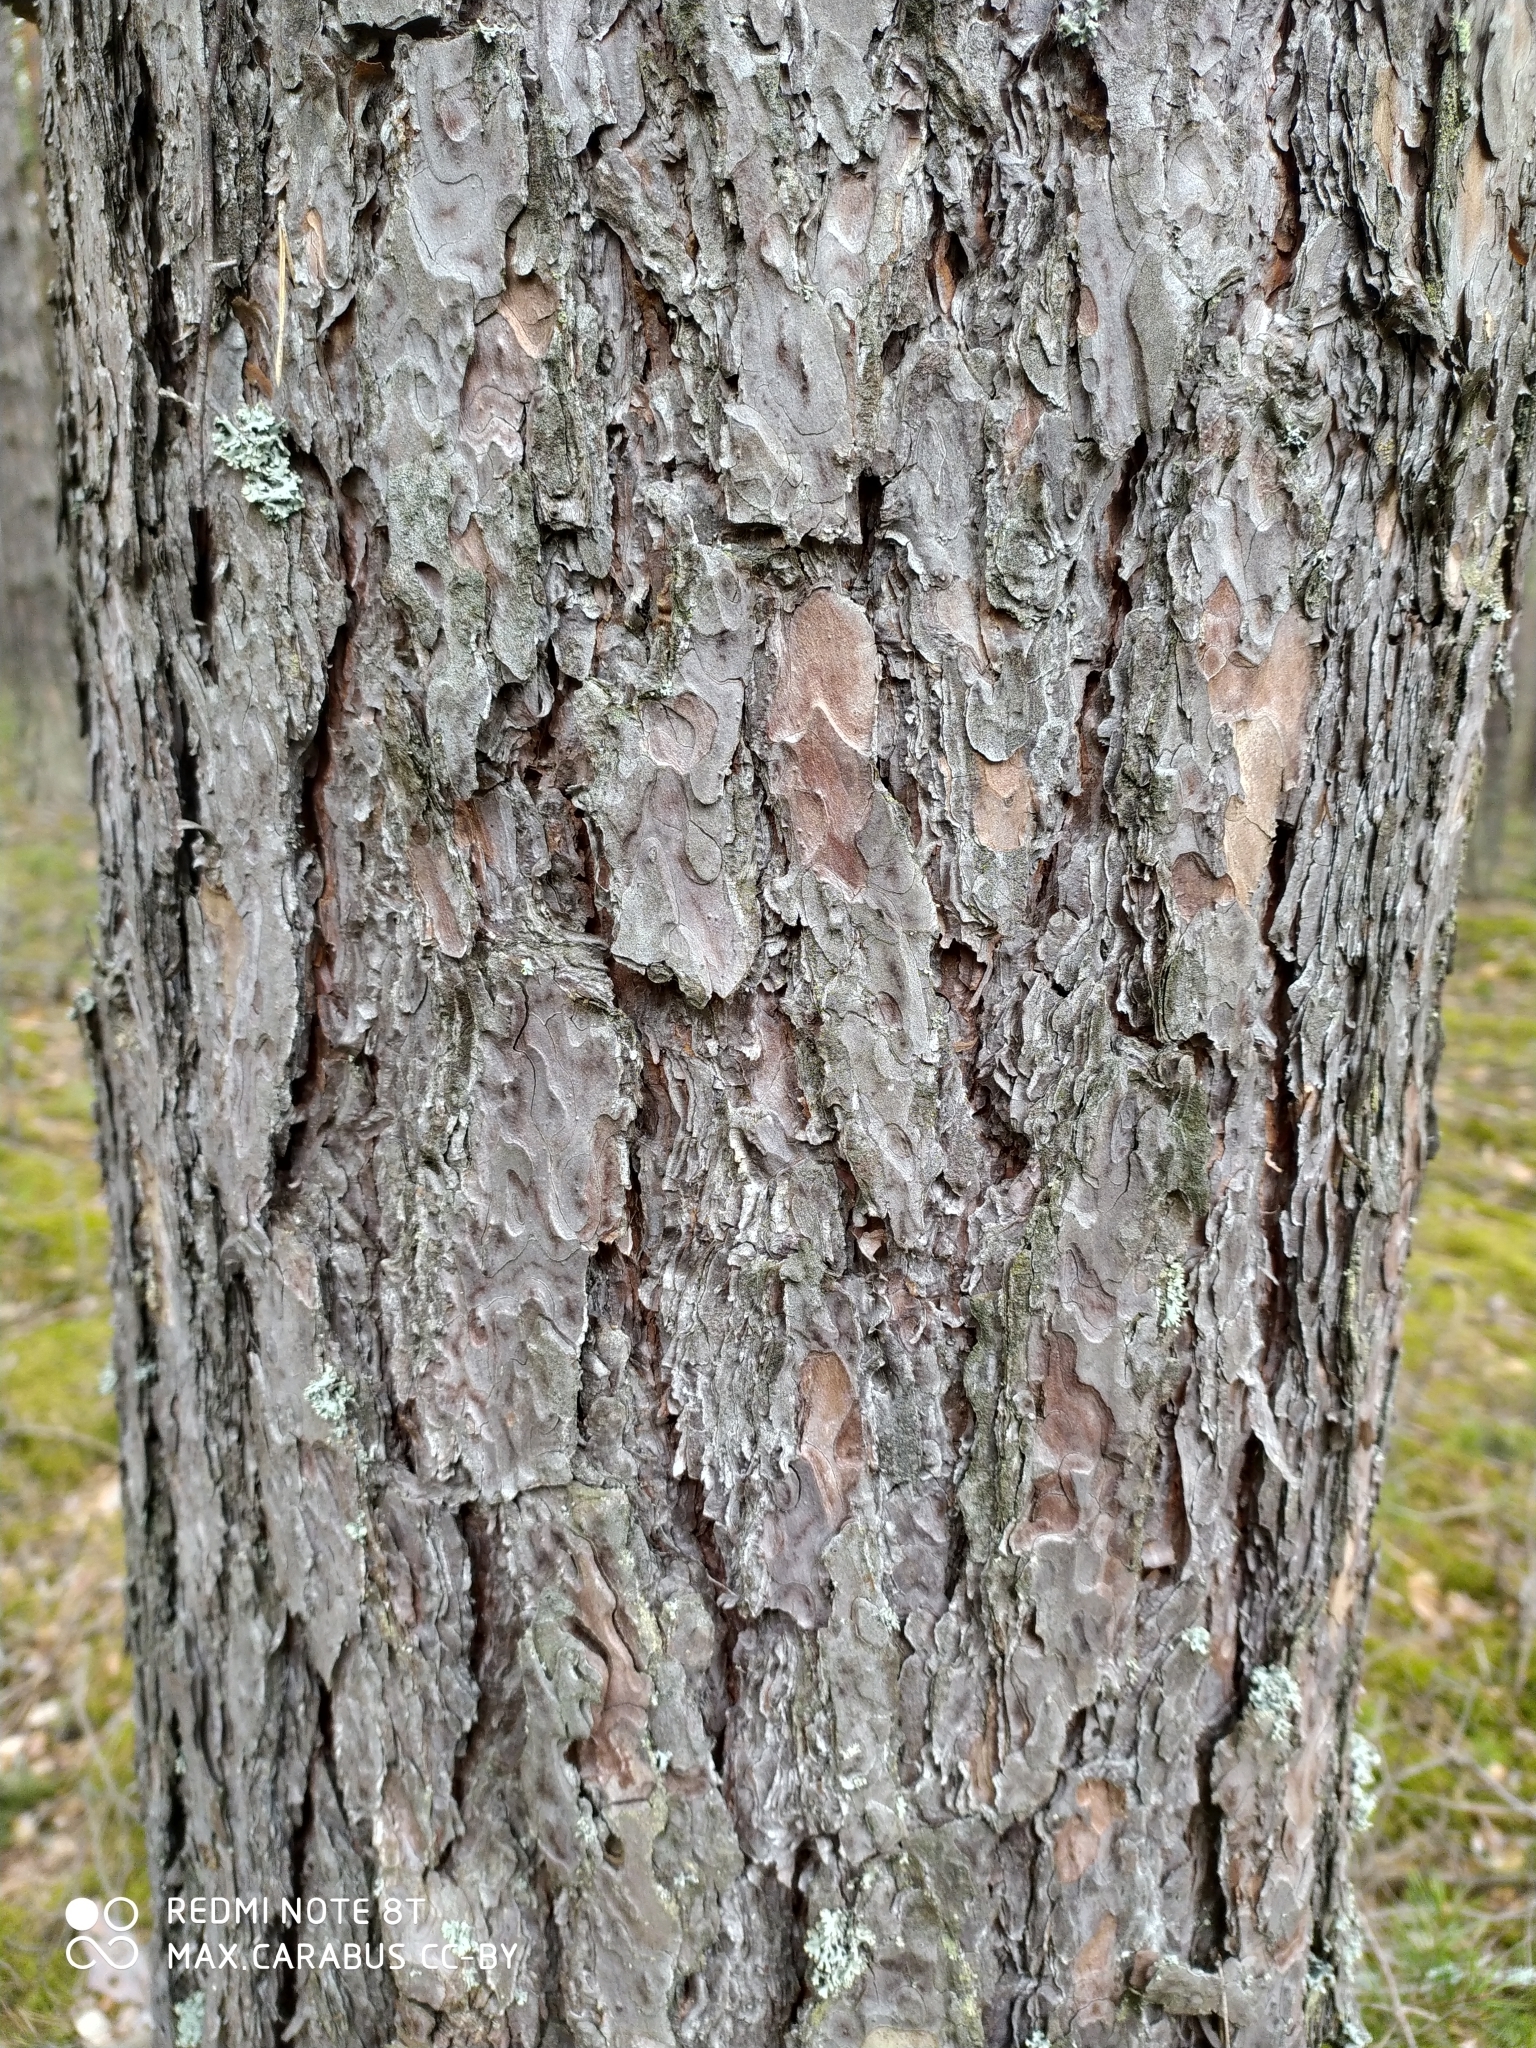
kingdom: Plantae
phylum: Tracheophyta
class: Pinopsida
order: Pinales
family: Pinaceae
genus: Pinus
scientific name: Pinus sylvestris
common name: Scots pine
